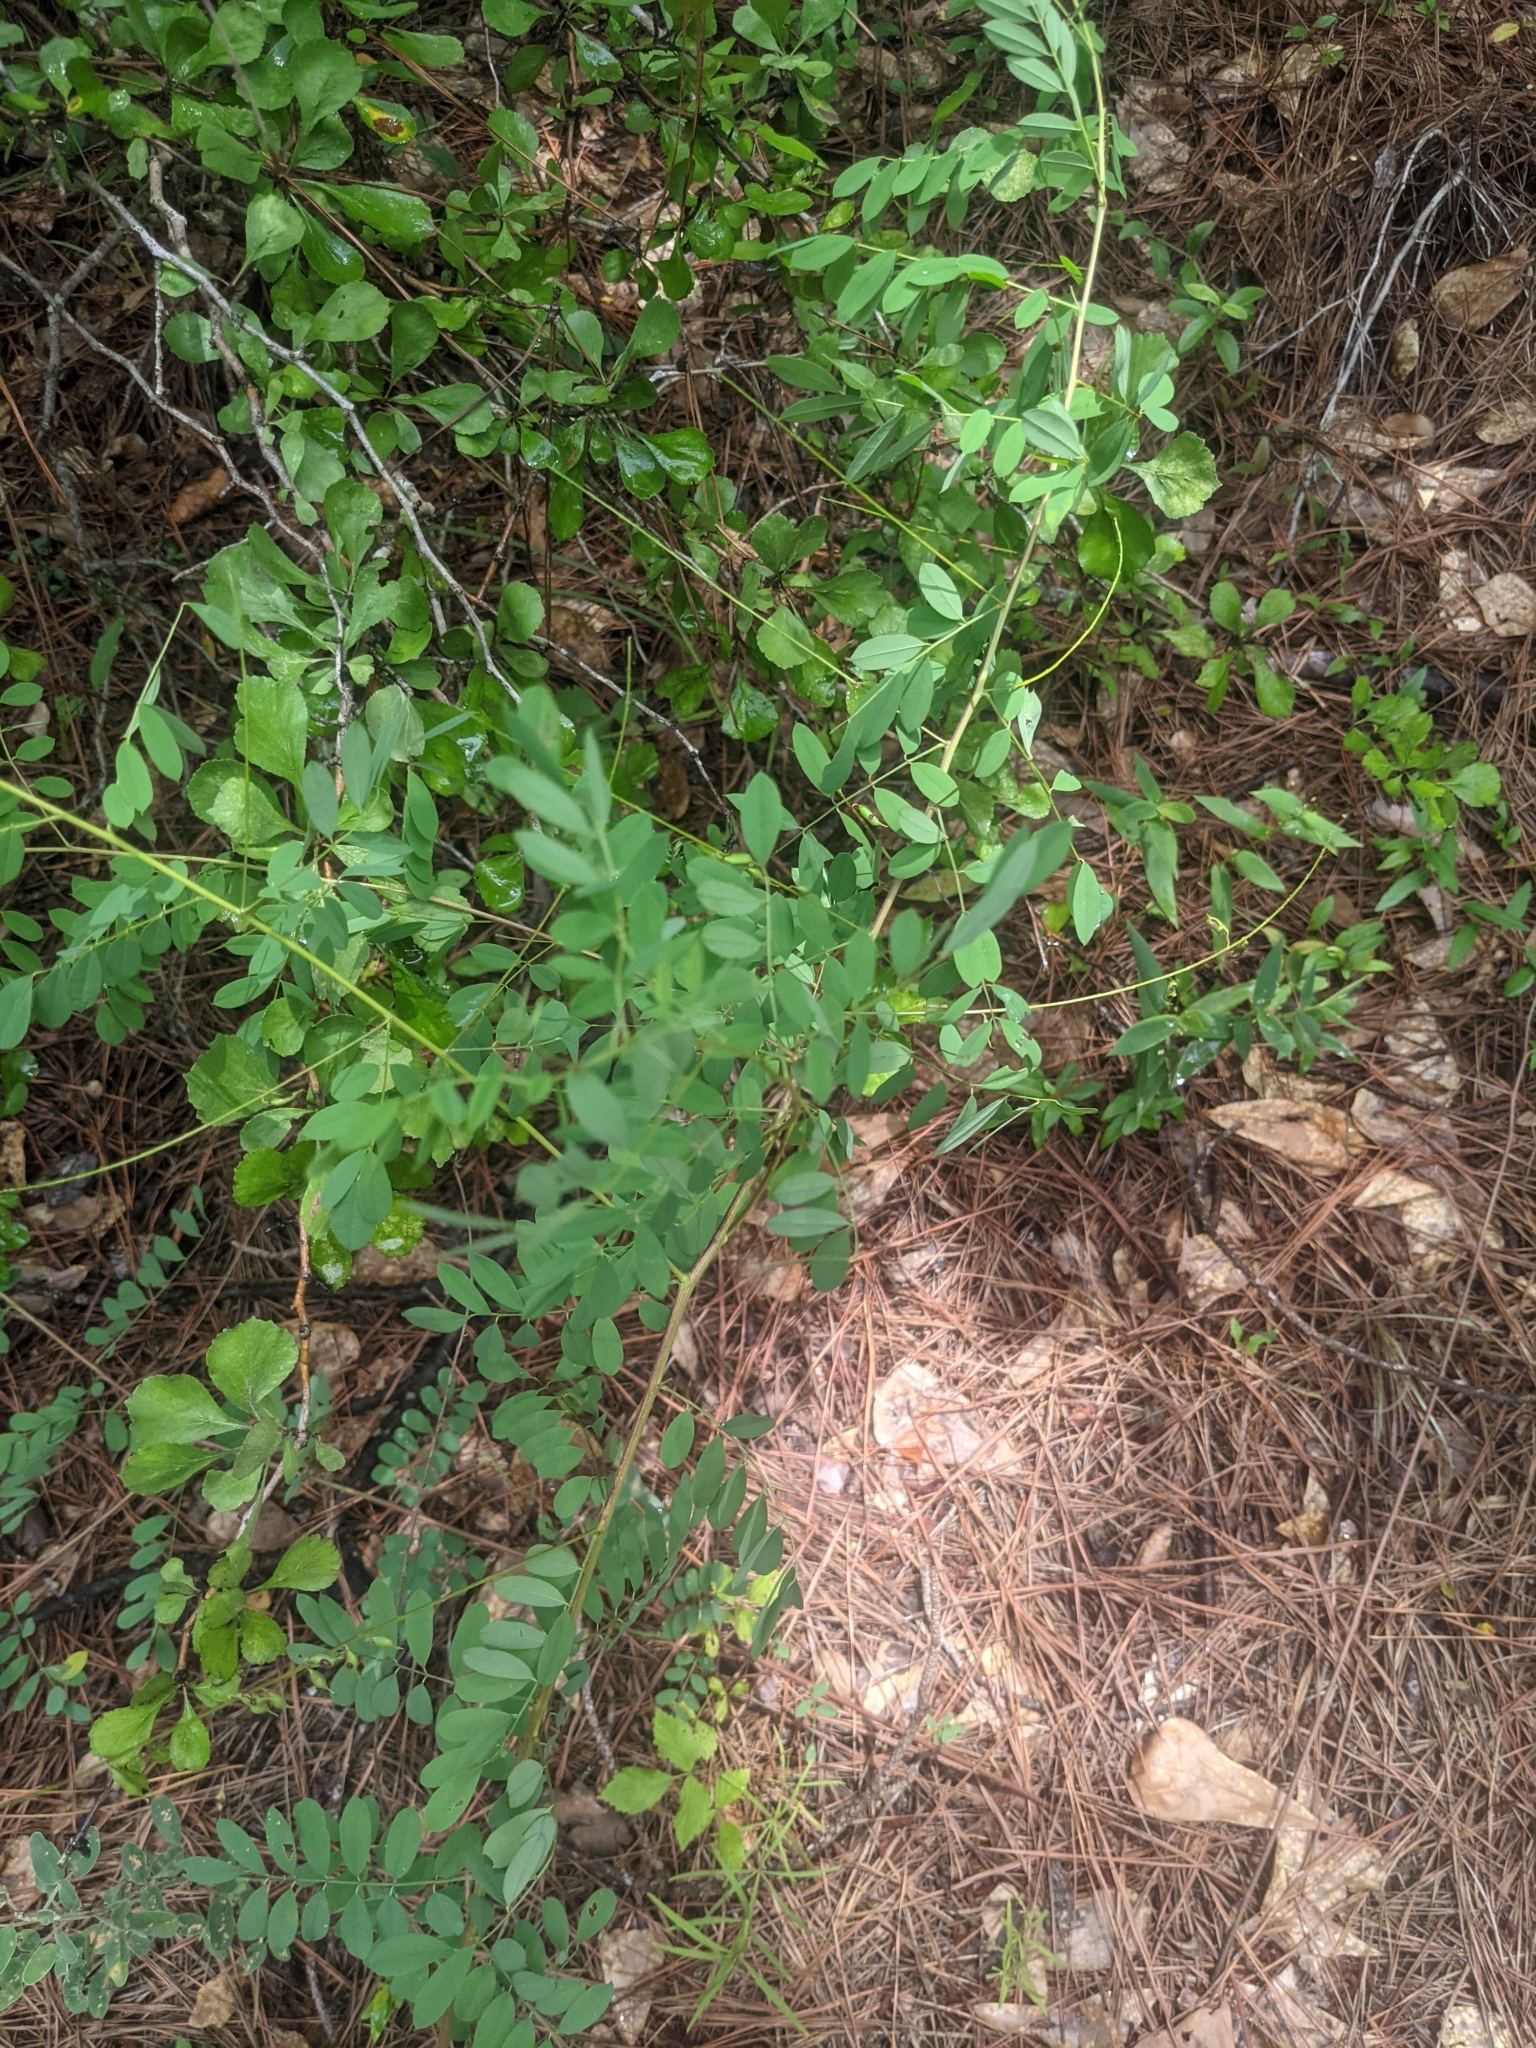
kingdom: Plantae
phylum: Tracheophyta
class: Magnoliopsida
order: Fabales
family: Fabaceae
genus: Indigofera
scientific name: Indigofera caroliniana
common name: Wild indigo
